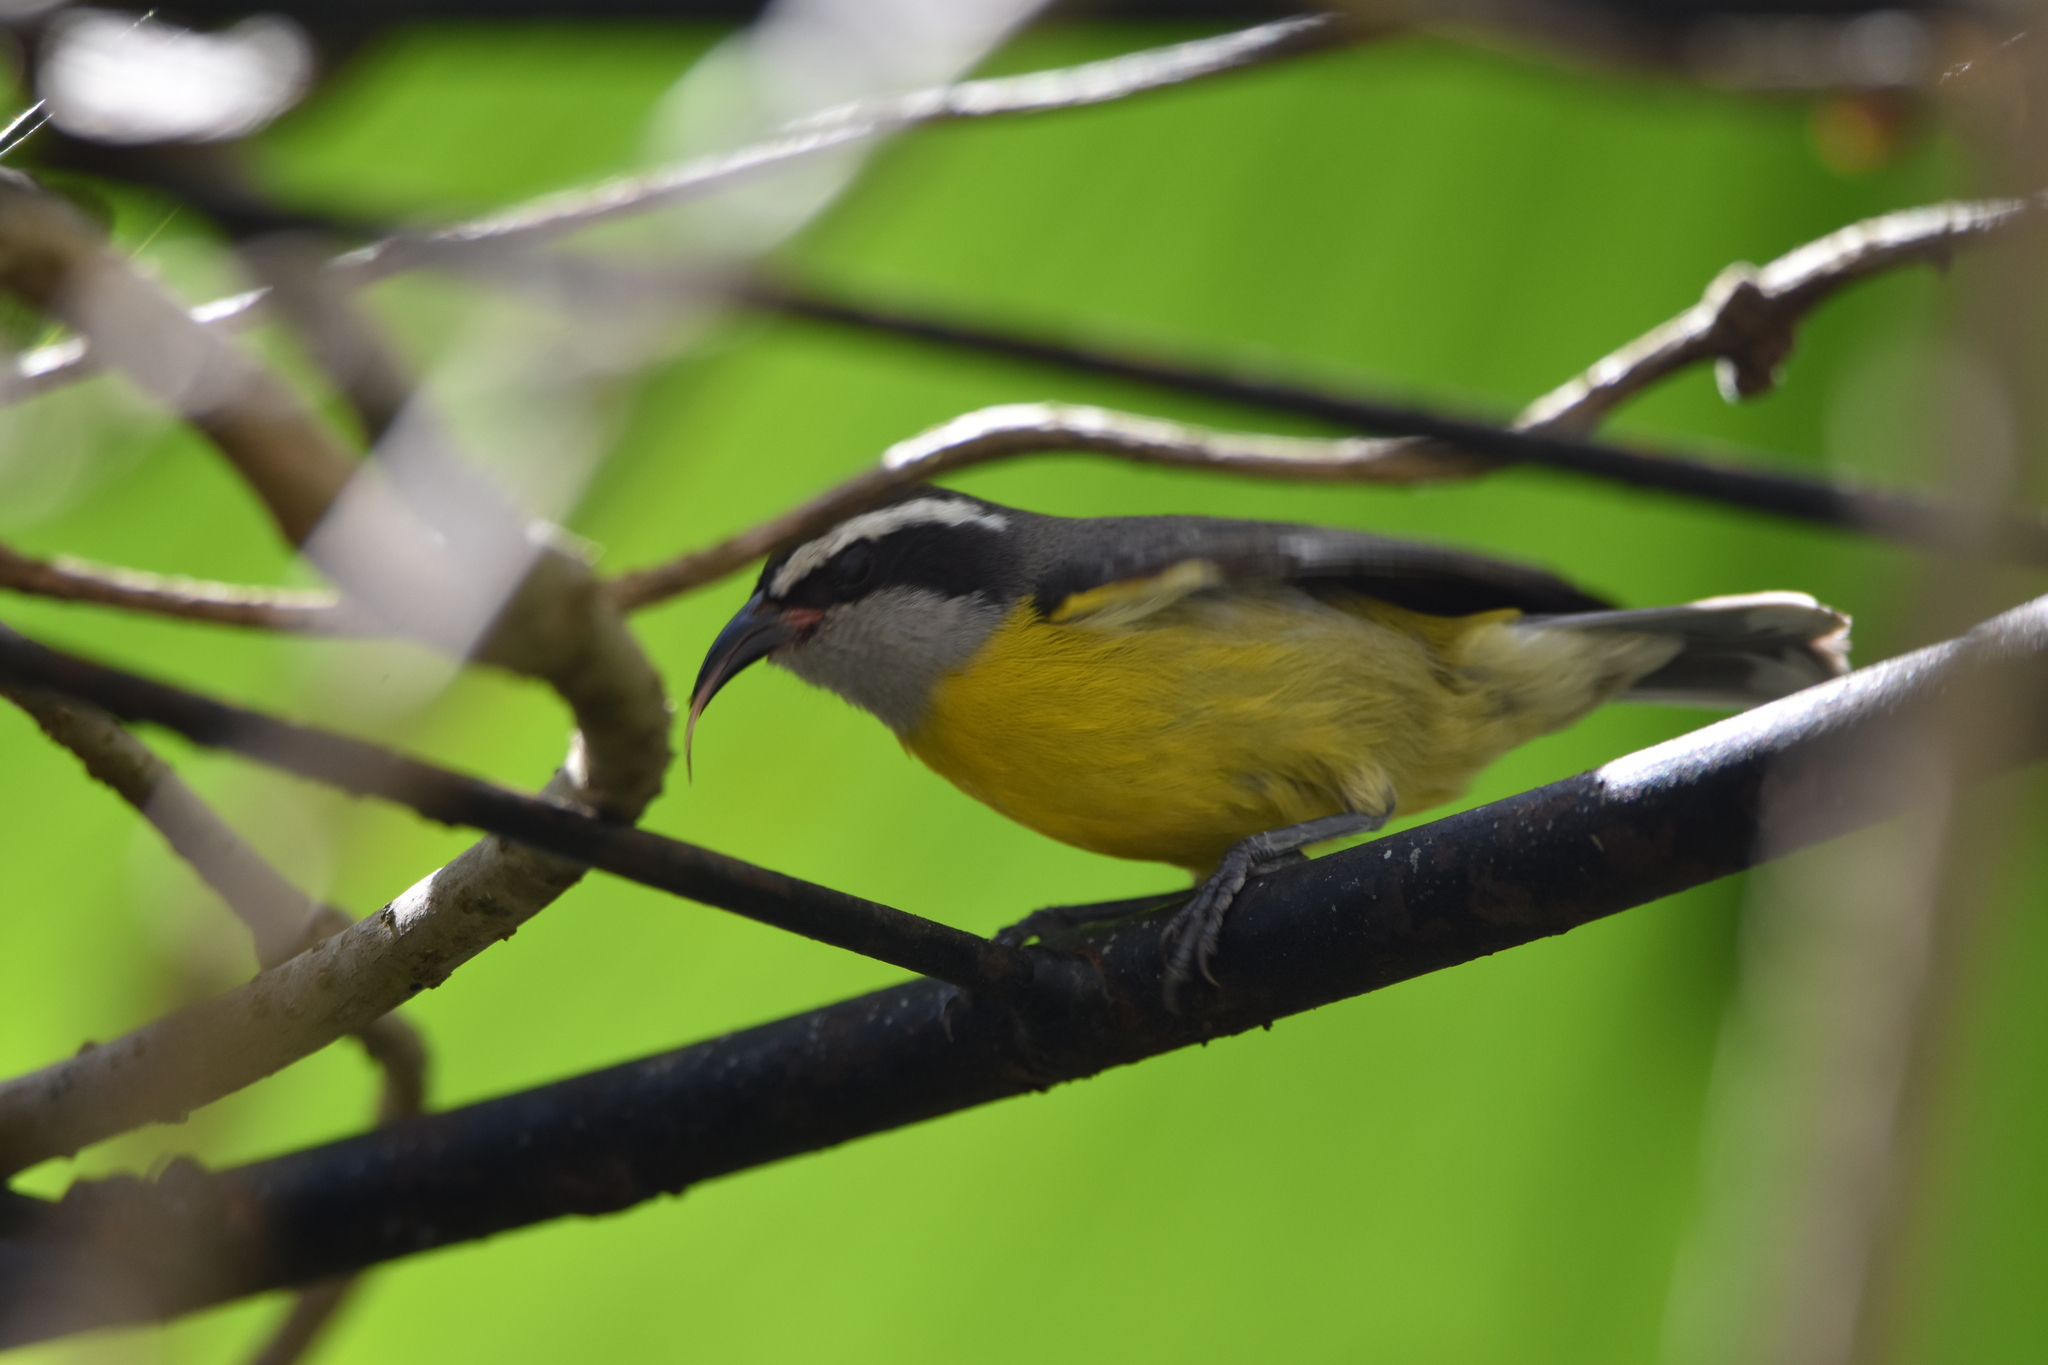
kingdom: Animalia
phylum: Chordata
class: Aves
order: Passeriformes
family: Thraupidae
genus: Coereba
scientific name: Coereba flaveola
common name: Bananaquit
